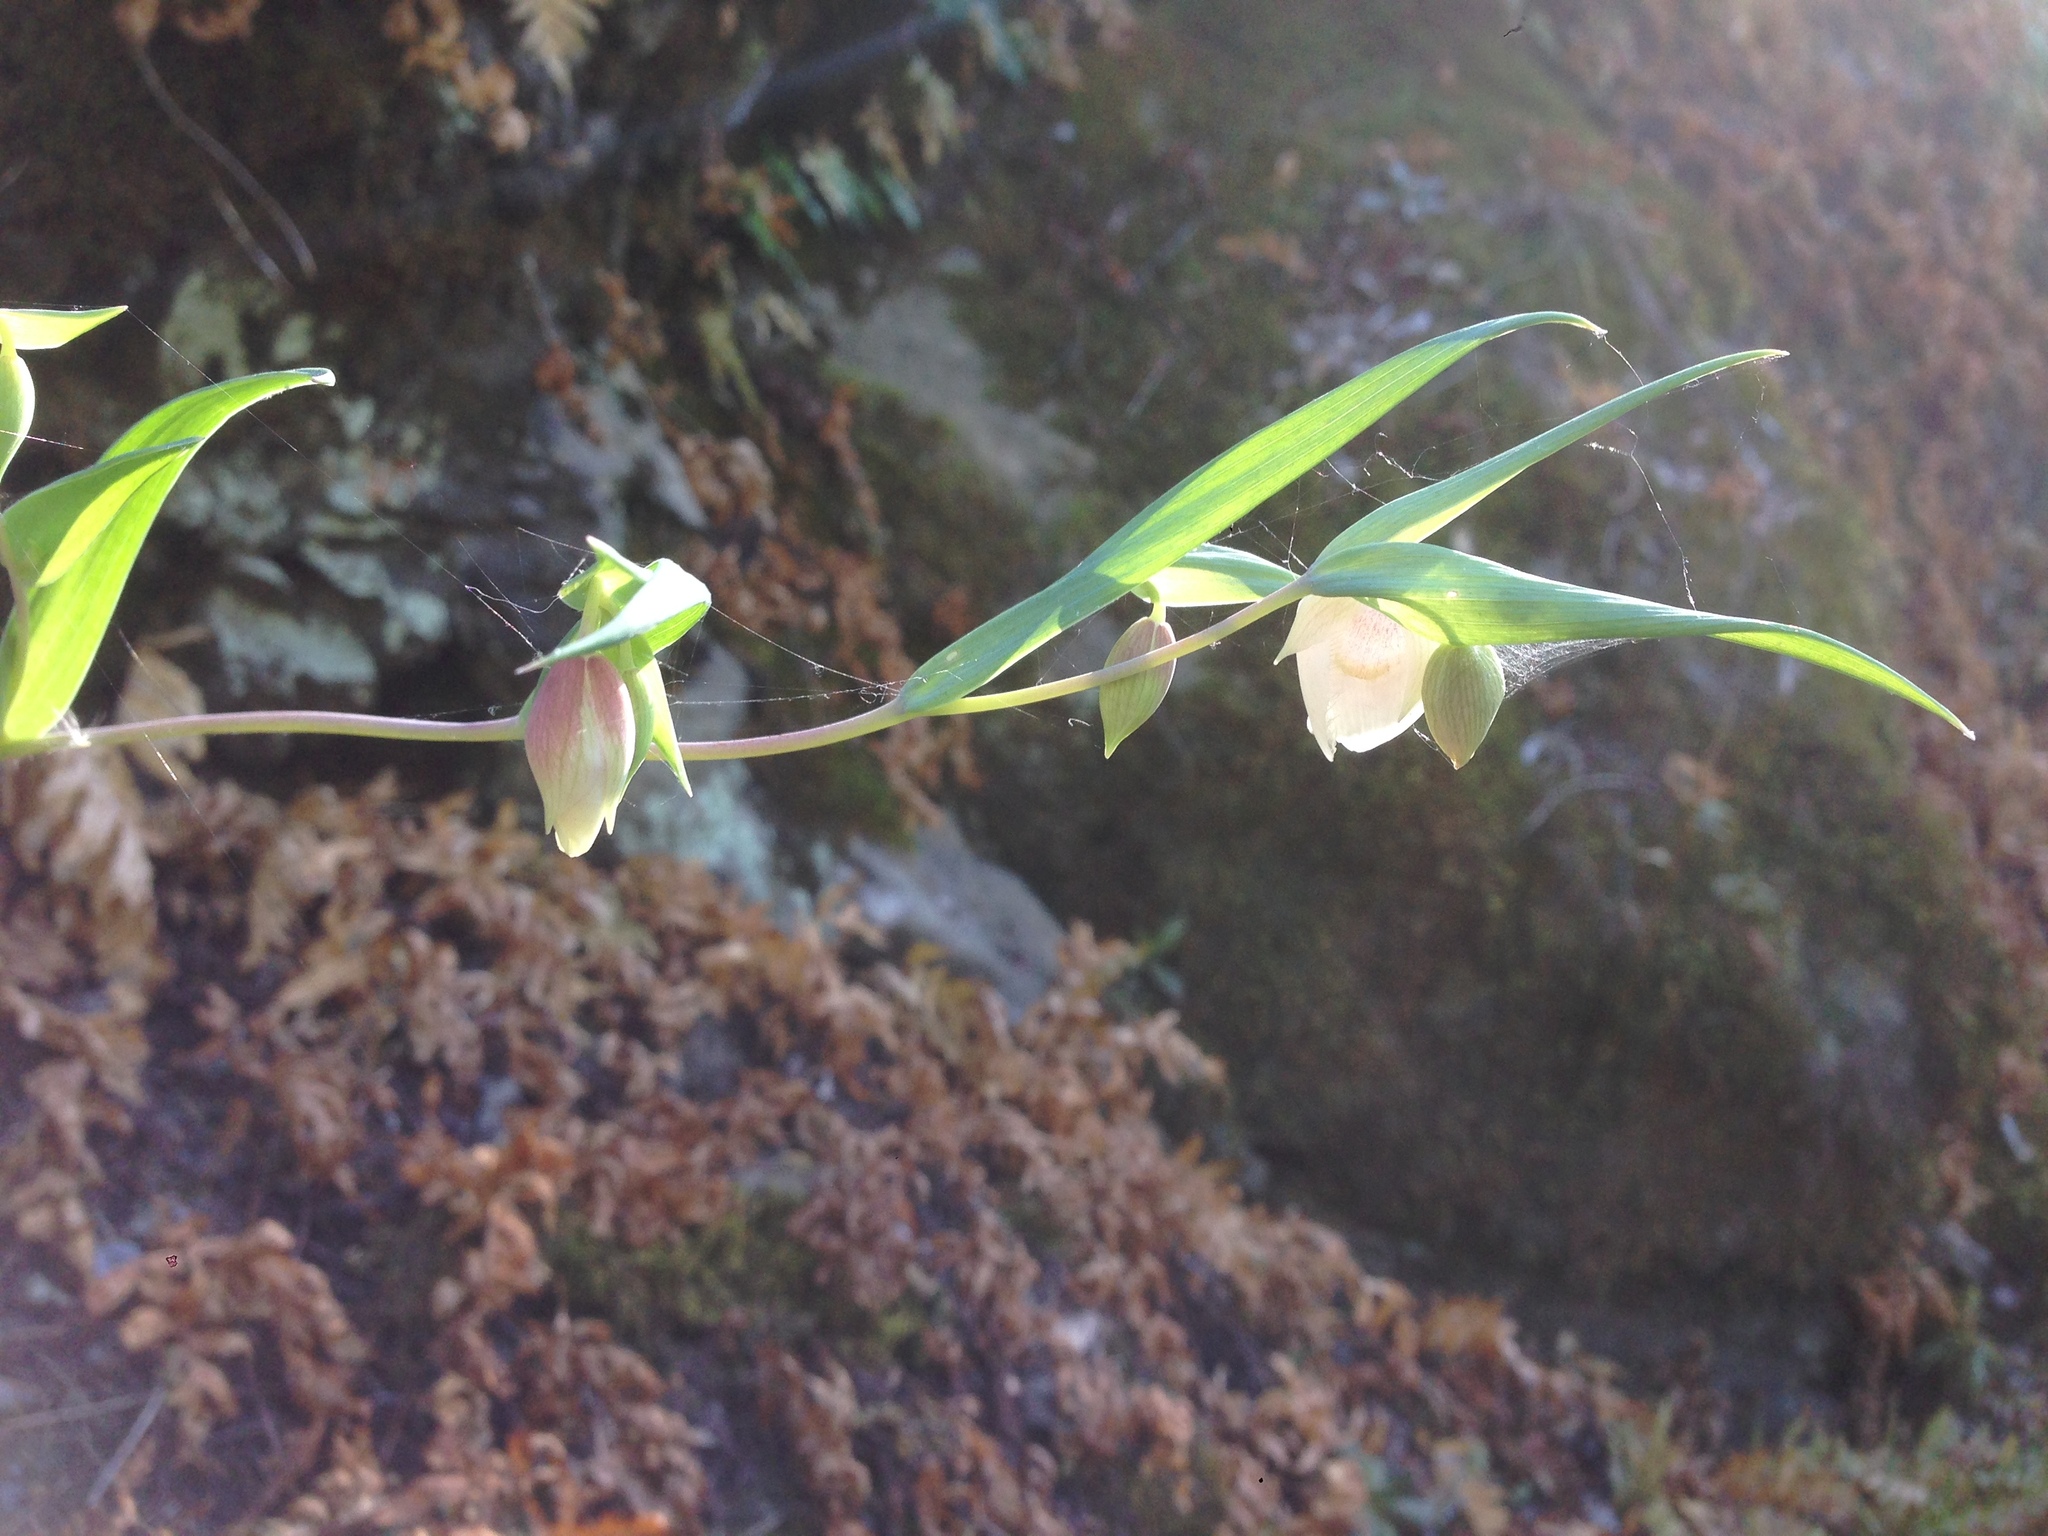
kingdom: Plantae
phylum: Tracheophyta
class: Liliopsida
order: Liliales
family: Liliaceae
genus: Calochortus
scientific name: Calochortus albus
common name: Fairy-lantern
